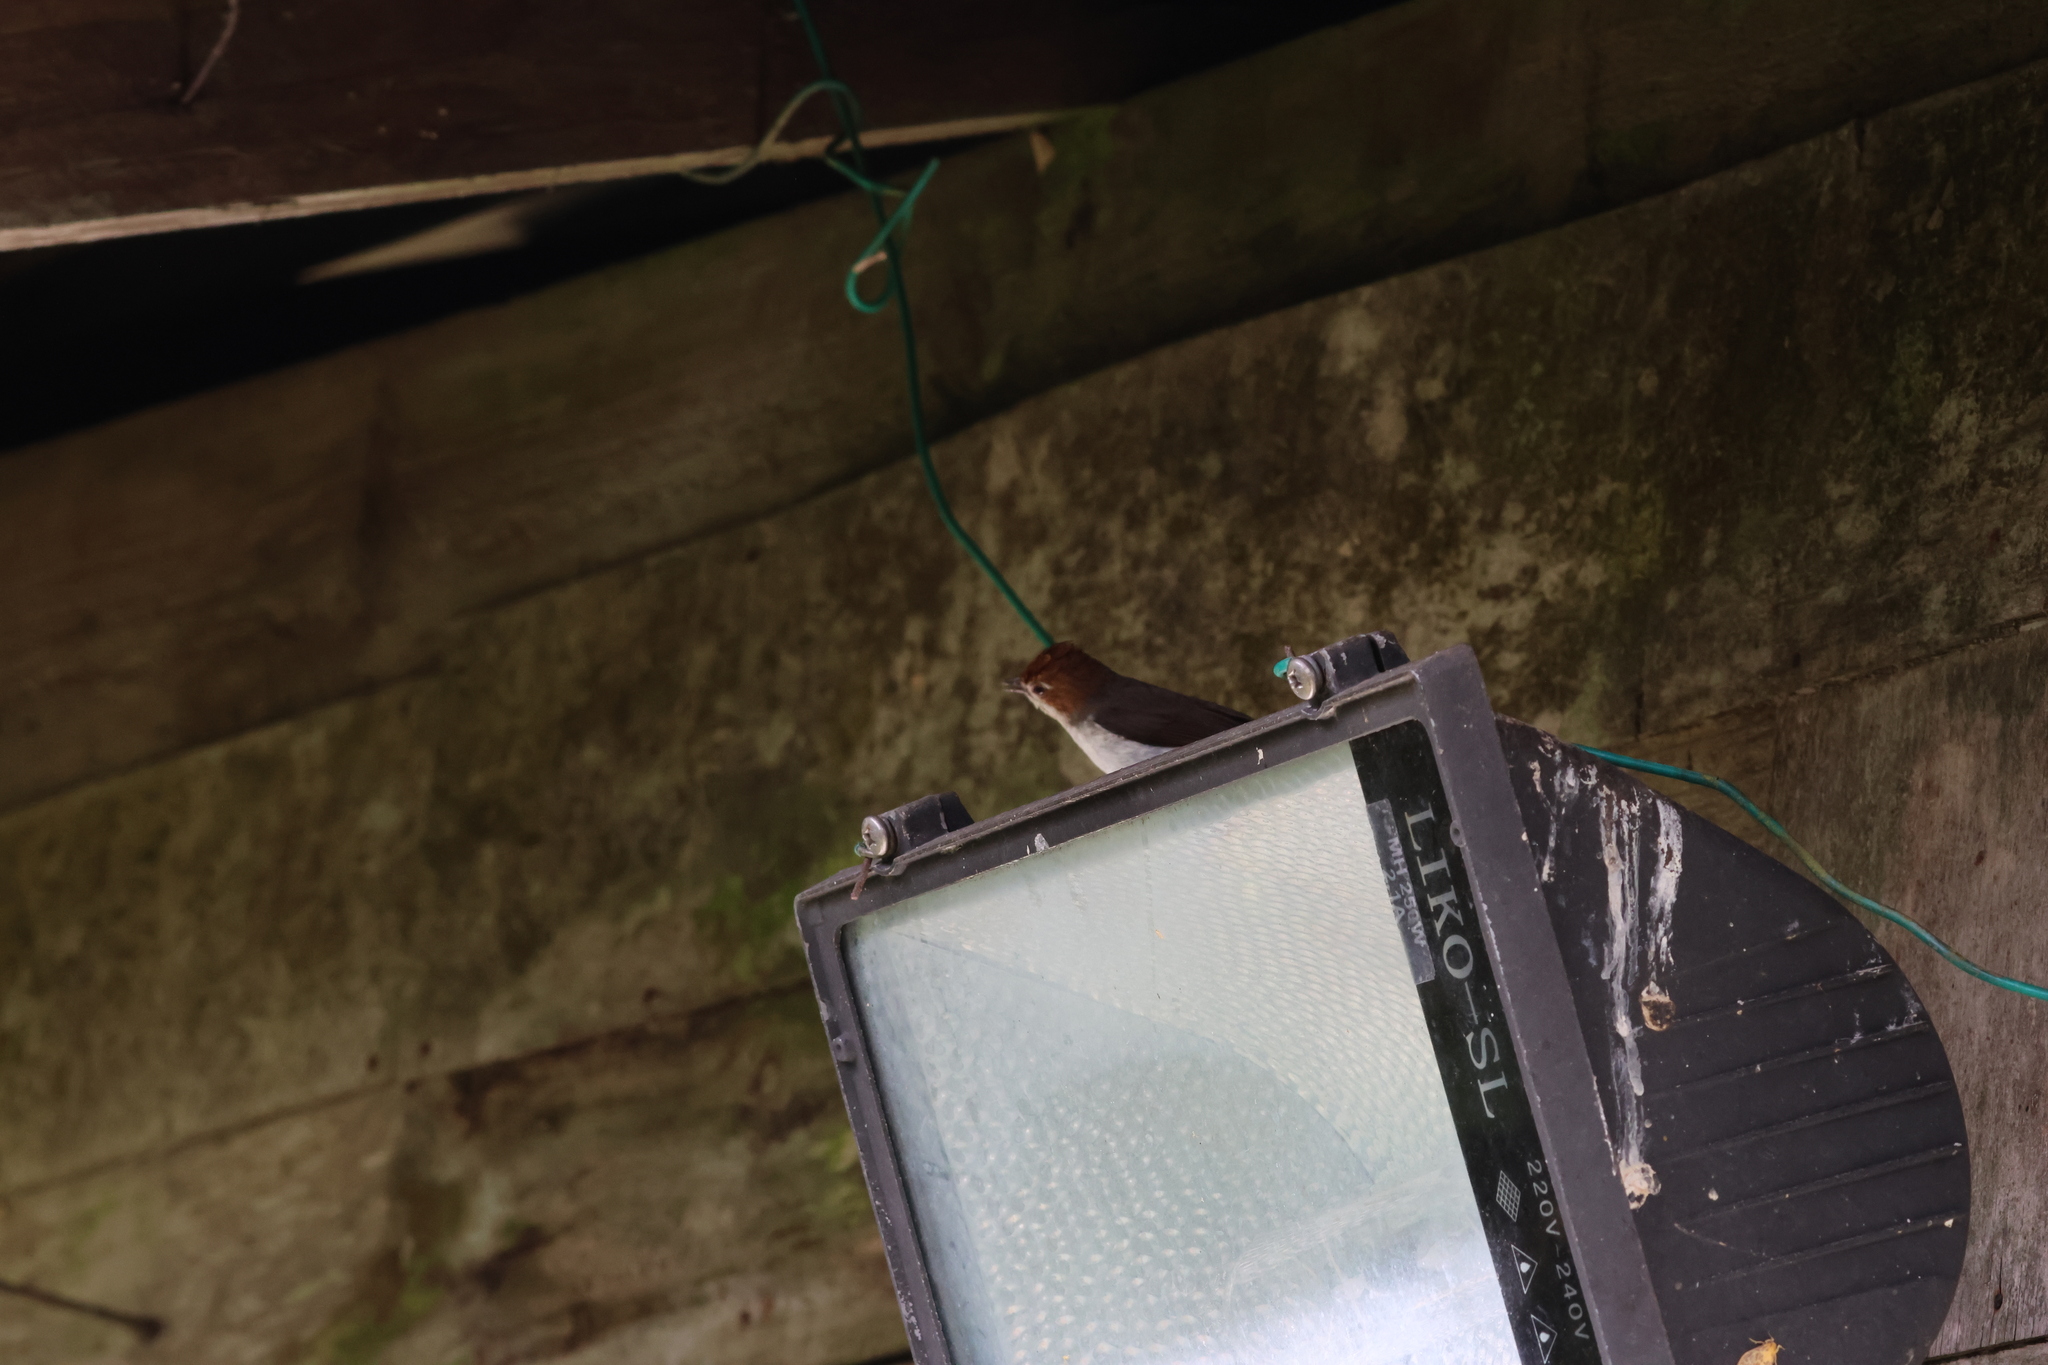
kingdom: Animalia
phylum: Chordata
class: Aves
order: Passeriformes
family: Zosteropidae
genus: Staphida
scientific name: Staphida everetti
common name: Chestnut-crested yuhina
